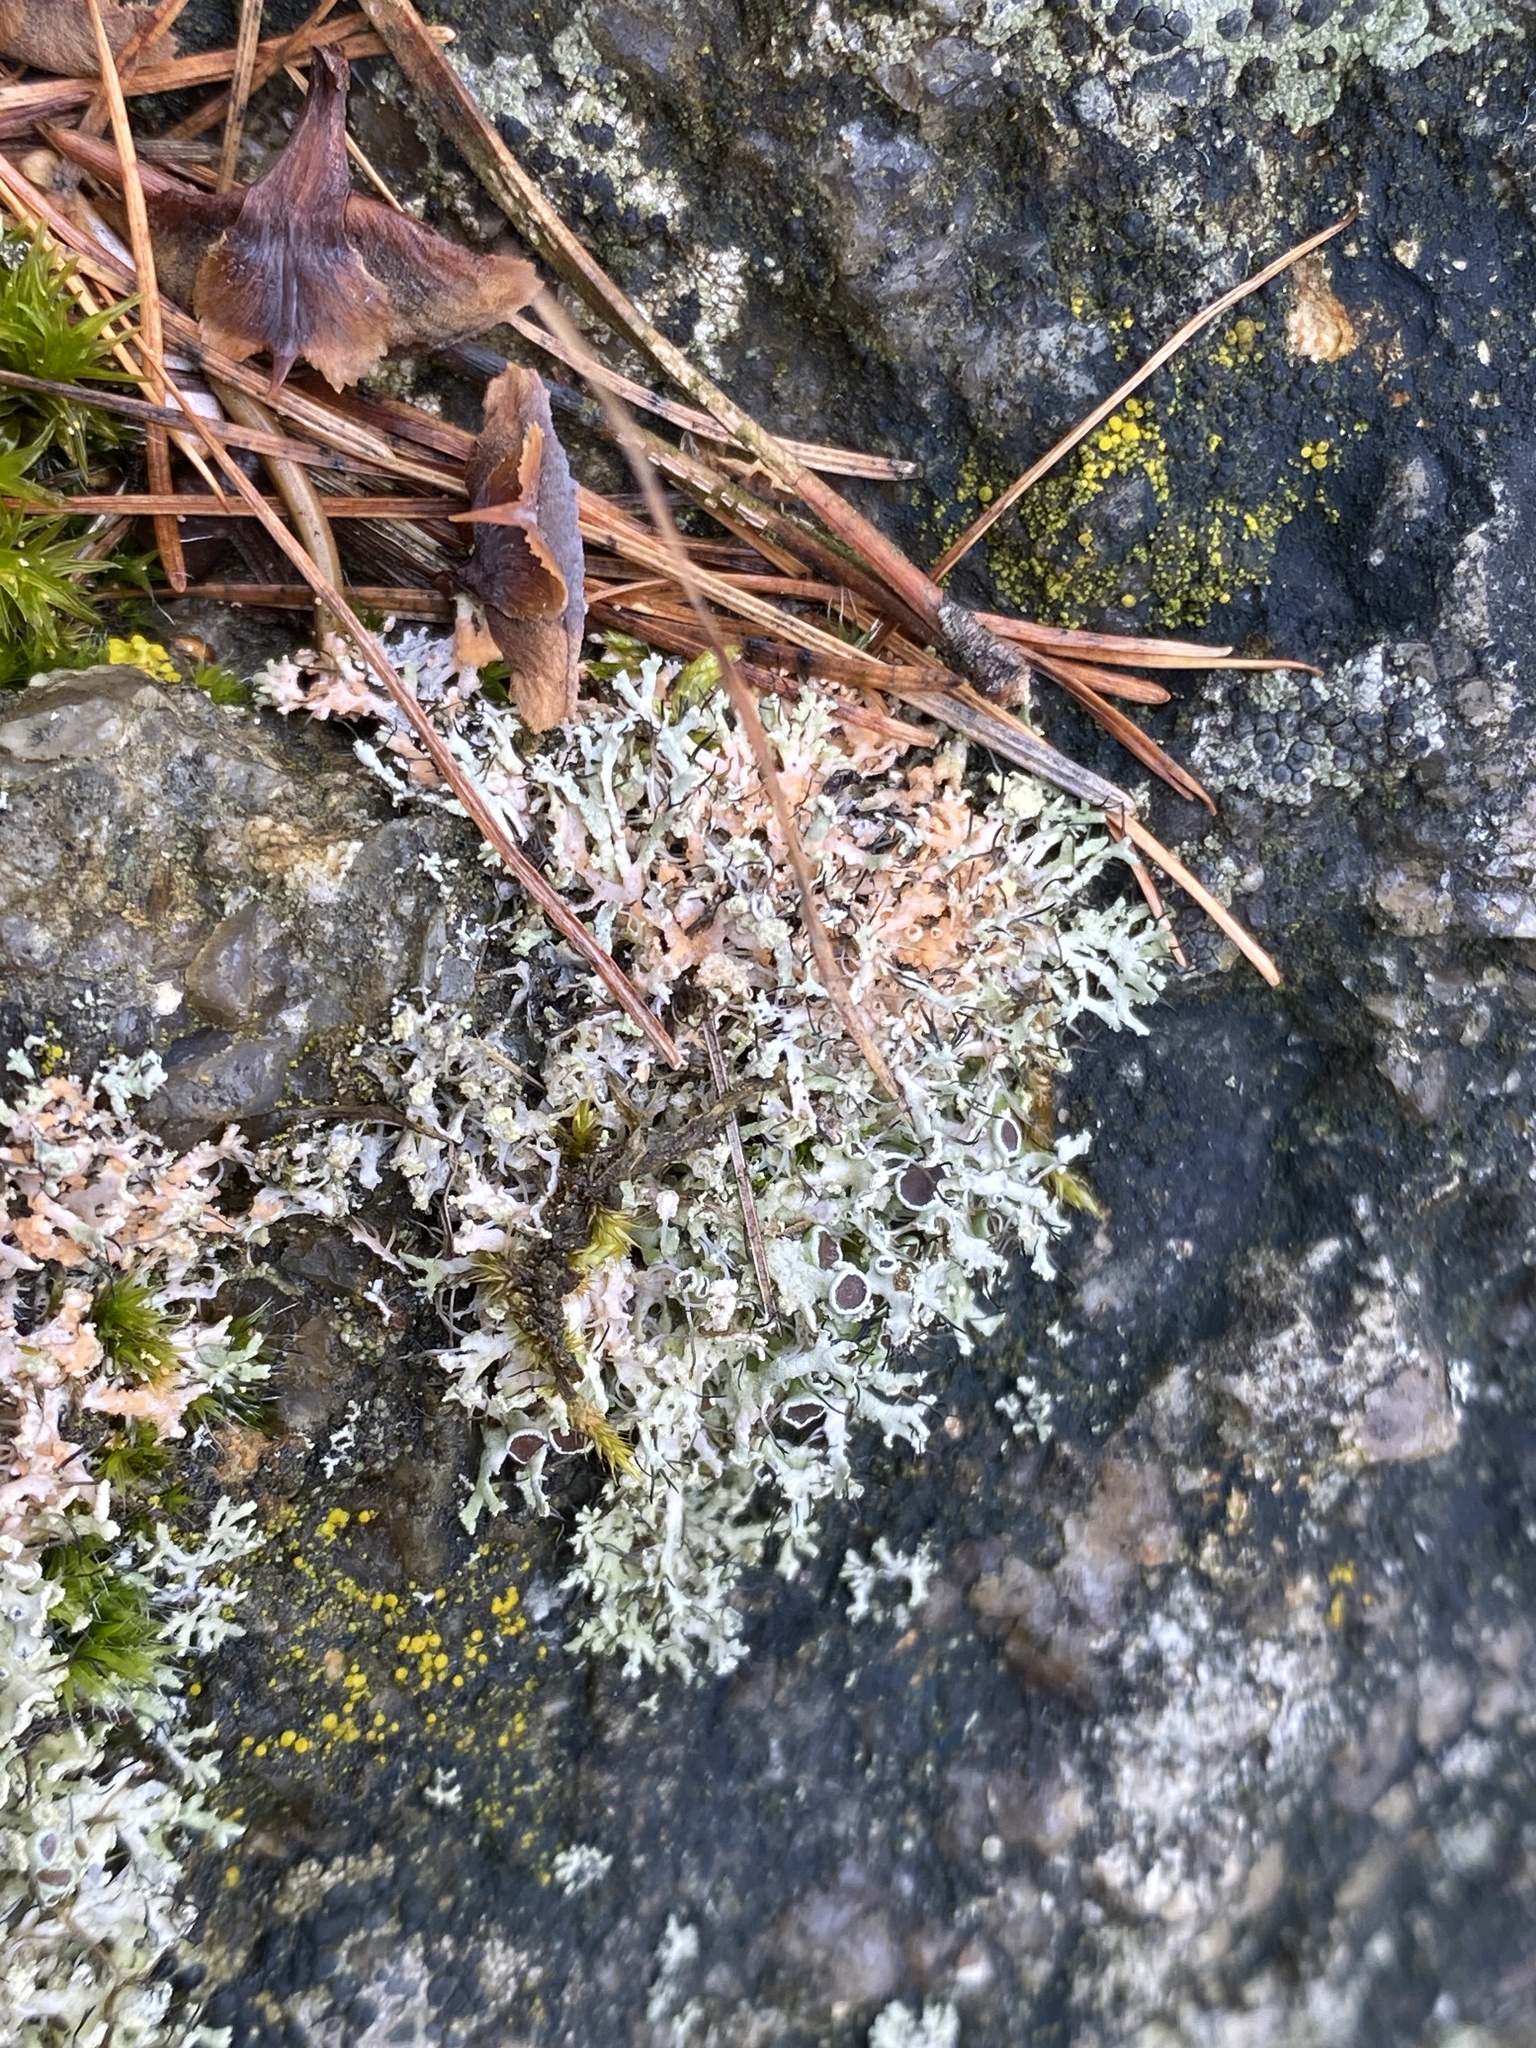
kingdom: Fungi
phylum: Ascomycota
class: Lecanoromycetes
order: Caliciales
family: Physciaceae
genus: Physcia
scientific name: Physcia tenella
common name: Fringed rosette lichen
